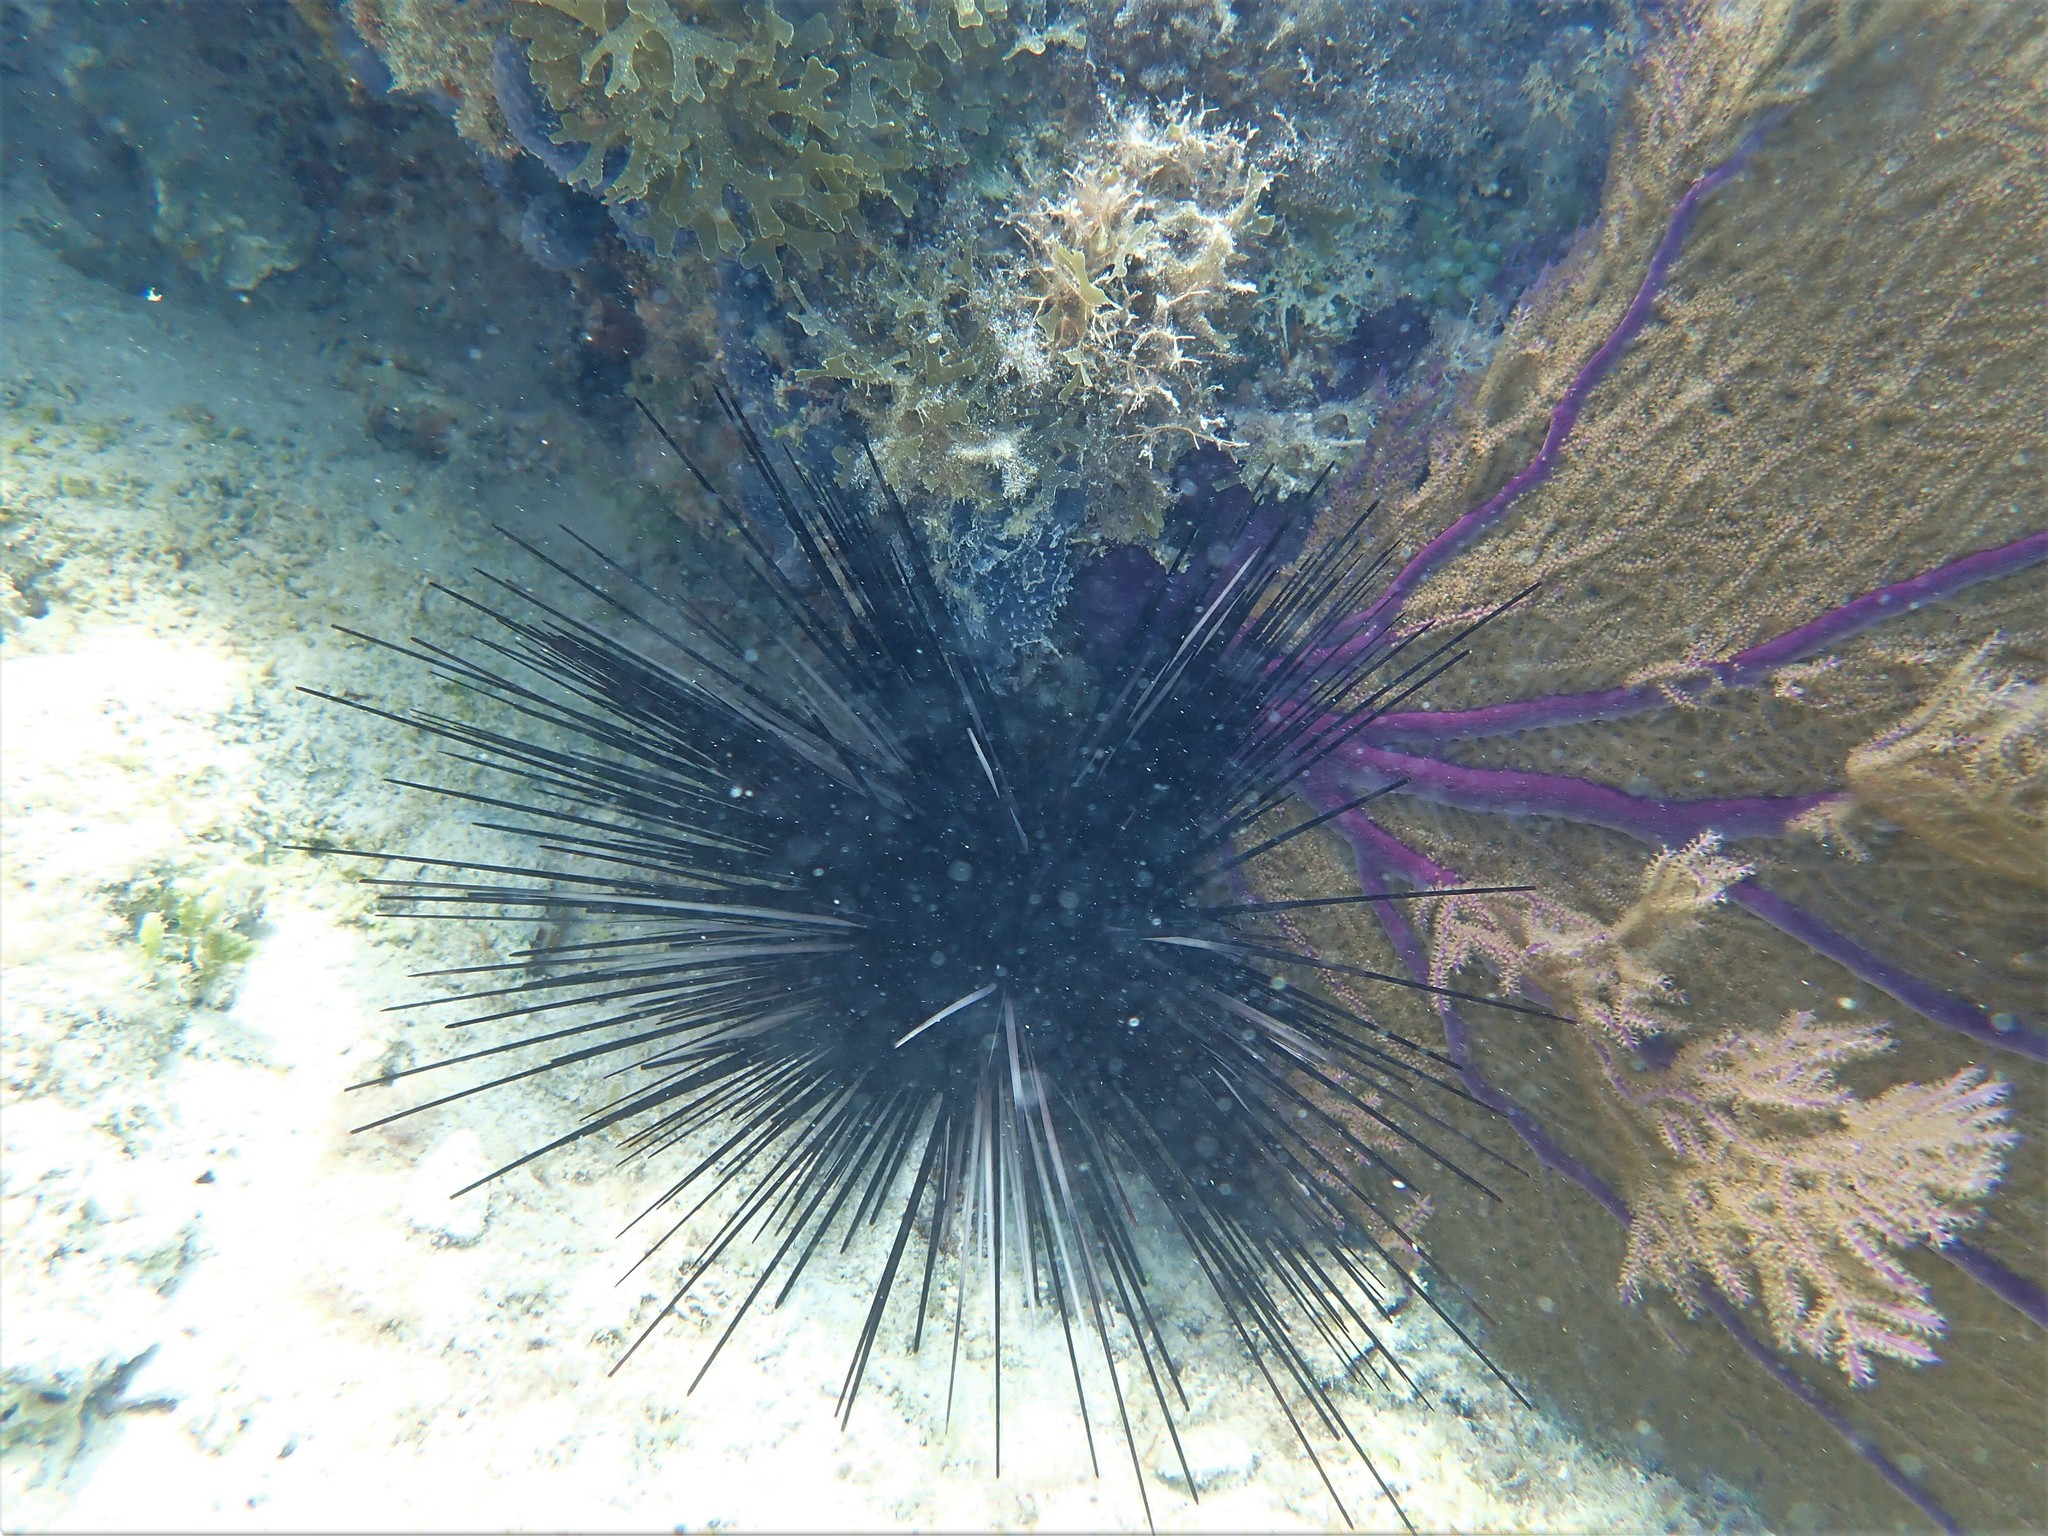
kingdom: Animalia
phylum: Echinodermata
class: Echinoidea
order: Diadematoida
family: Diadematidae
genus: Diadema
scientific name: Diadema antillarum
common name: Spiny urchin
